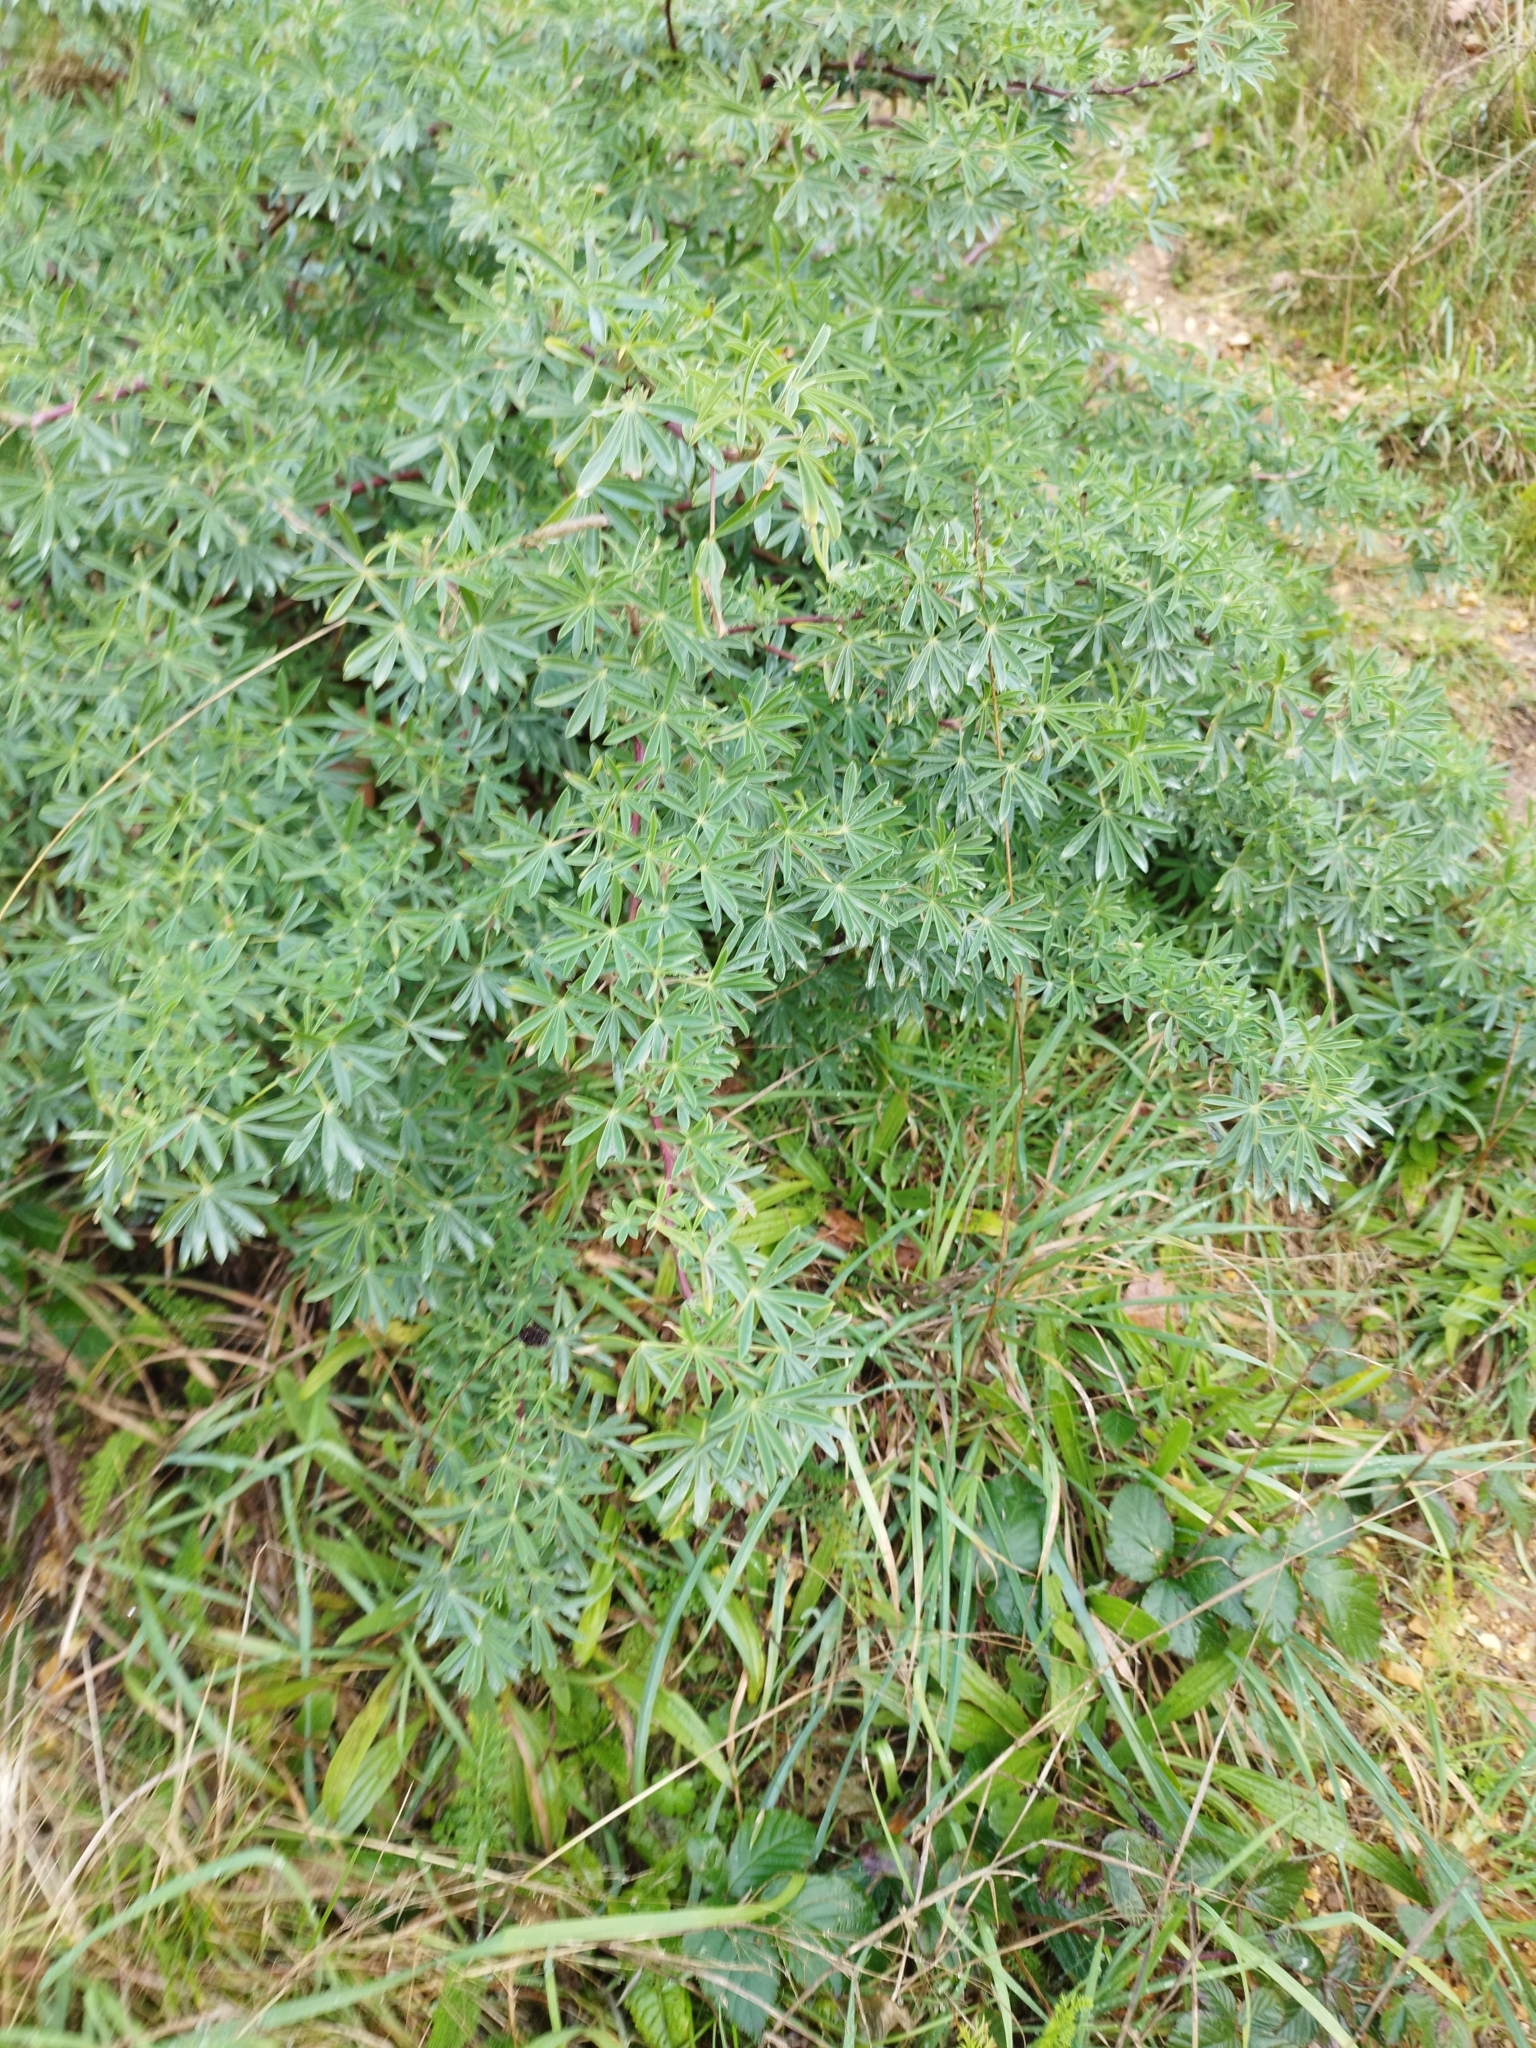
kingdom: Plantae
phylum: Tracheophyta
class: Magnoliopsida
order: Fabales
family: Fabaceae
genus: Lupinus
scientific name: Lupinus arboreus
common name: Yellow bush lupine
